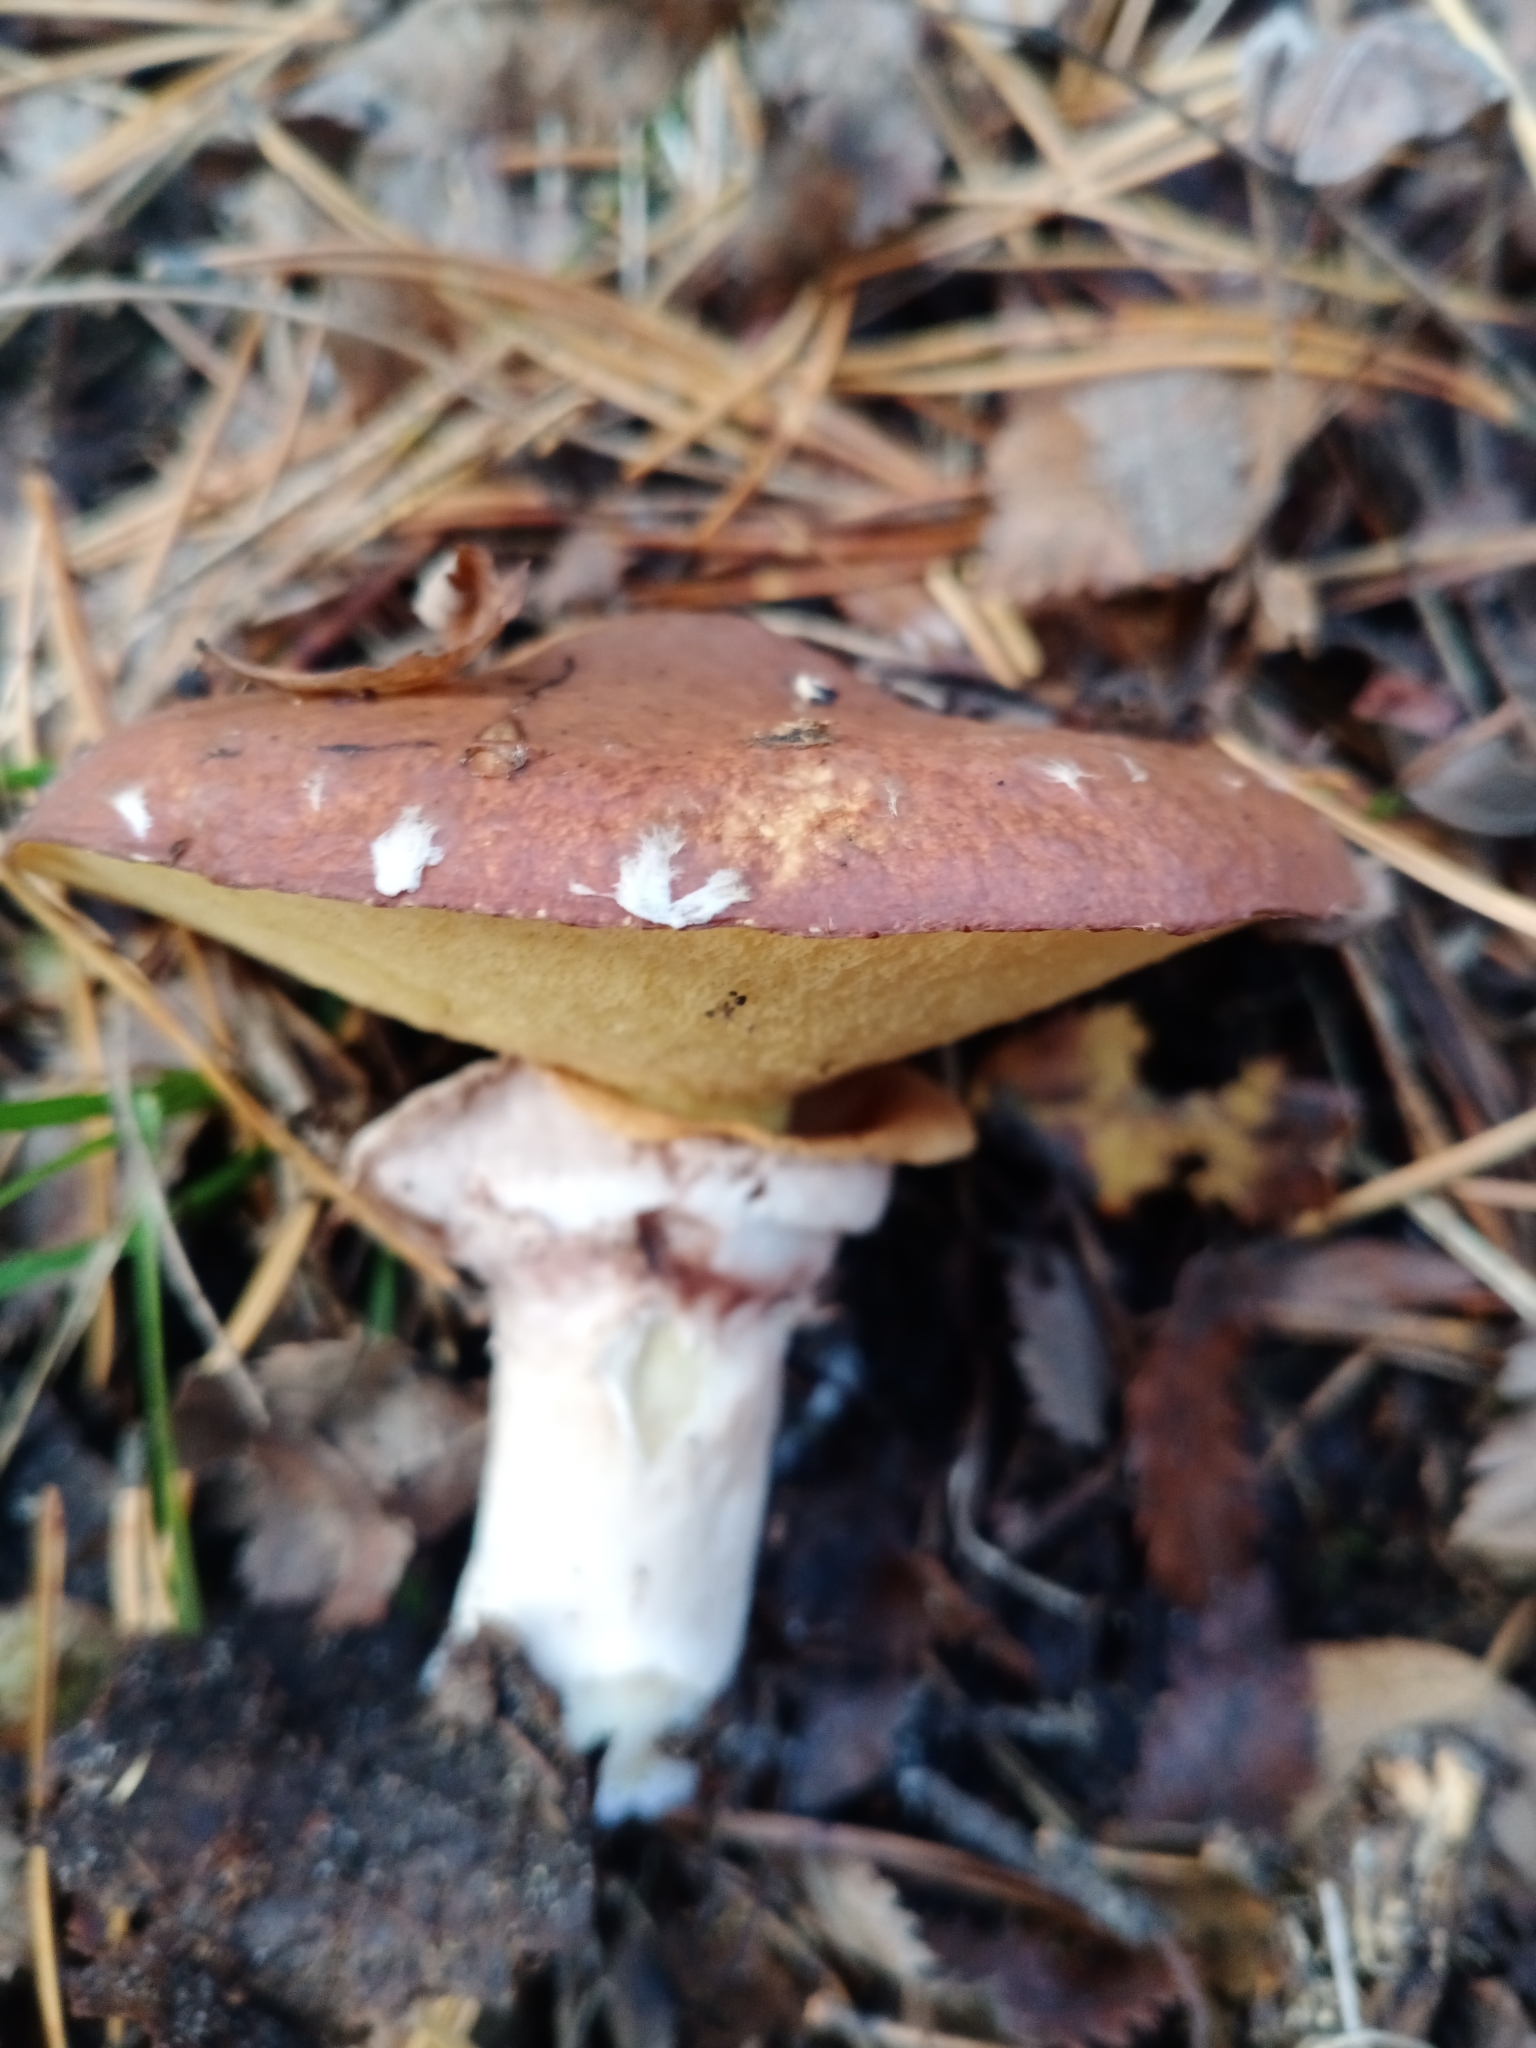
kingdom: Fungi
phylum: Basidiomycota
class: Agaricomycetes
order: Boletales
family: Suillaceae
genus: Suillus
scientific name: Suillus luteus
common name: Slippery jack
